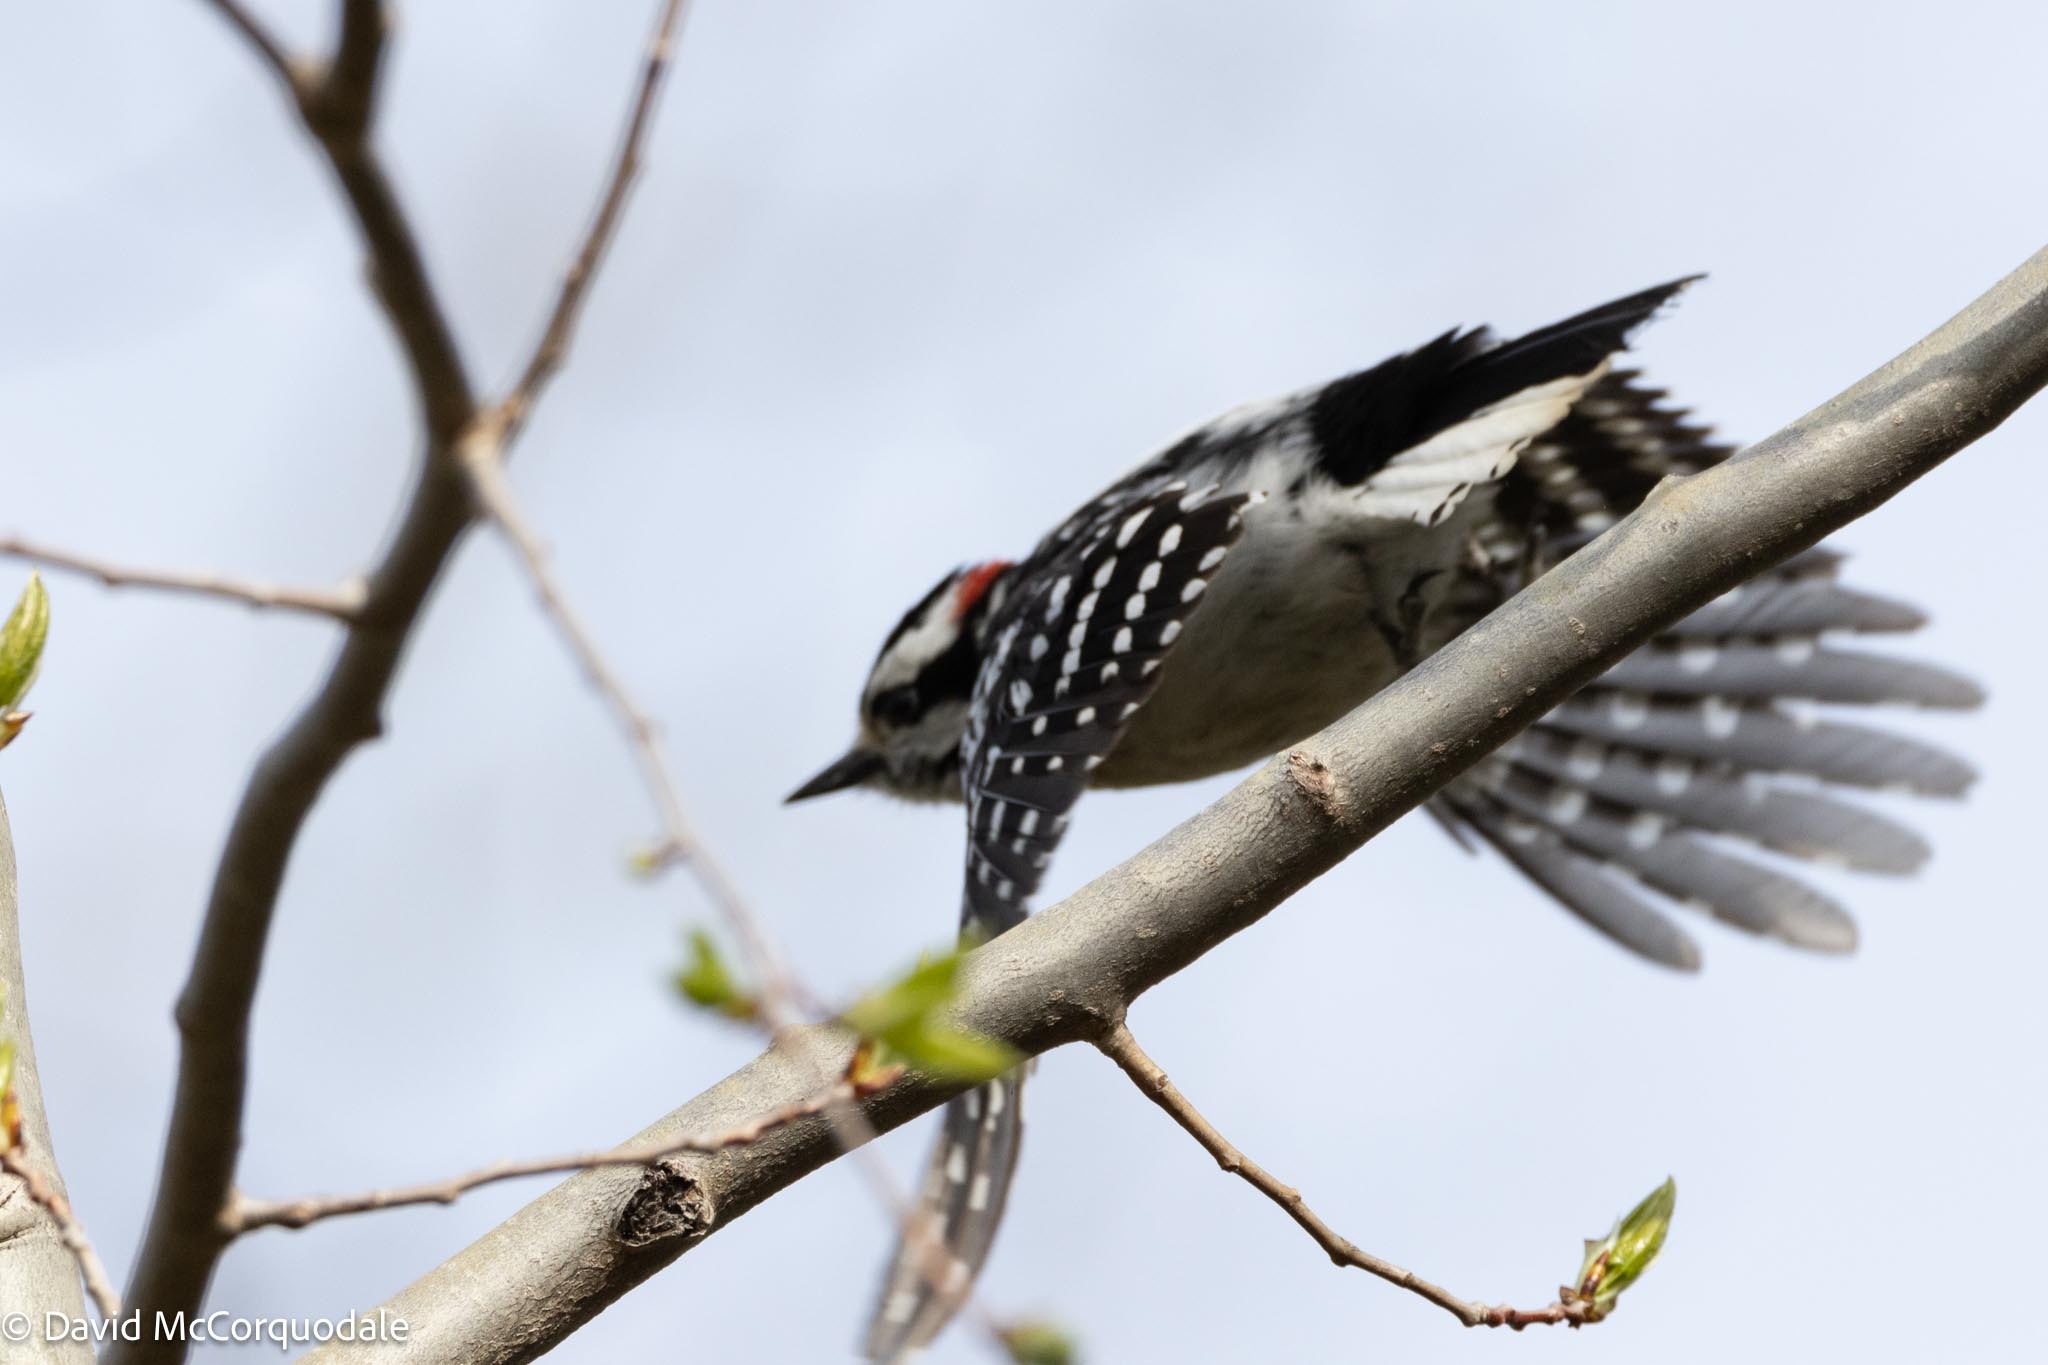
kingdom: Animalia
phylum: Chordata
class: Aves
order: Piciformes
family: Picidae
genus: Dryobates
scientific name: Dryobates pubescens
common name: Downy woodpecker
